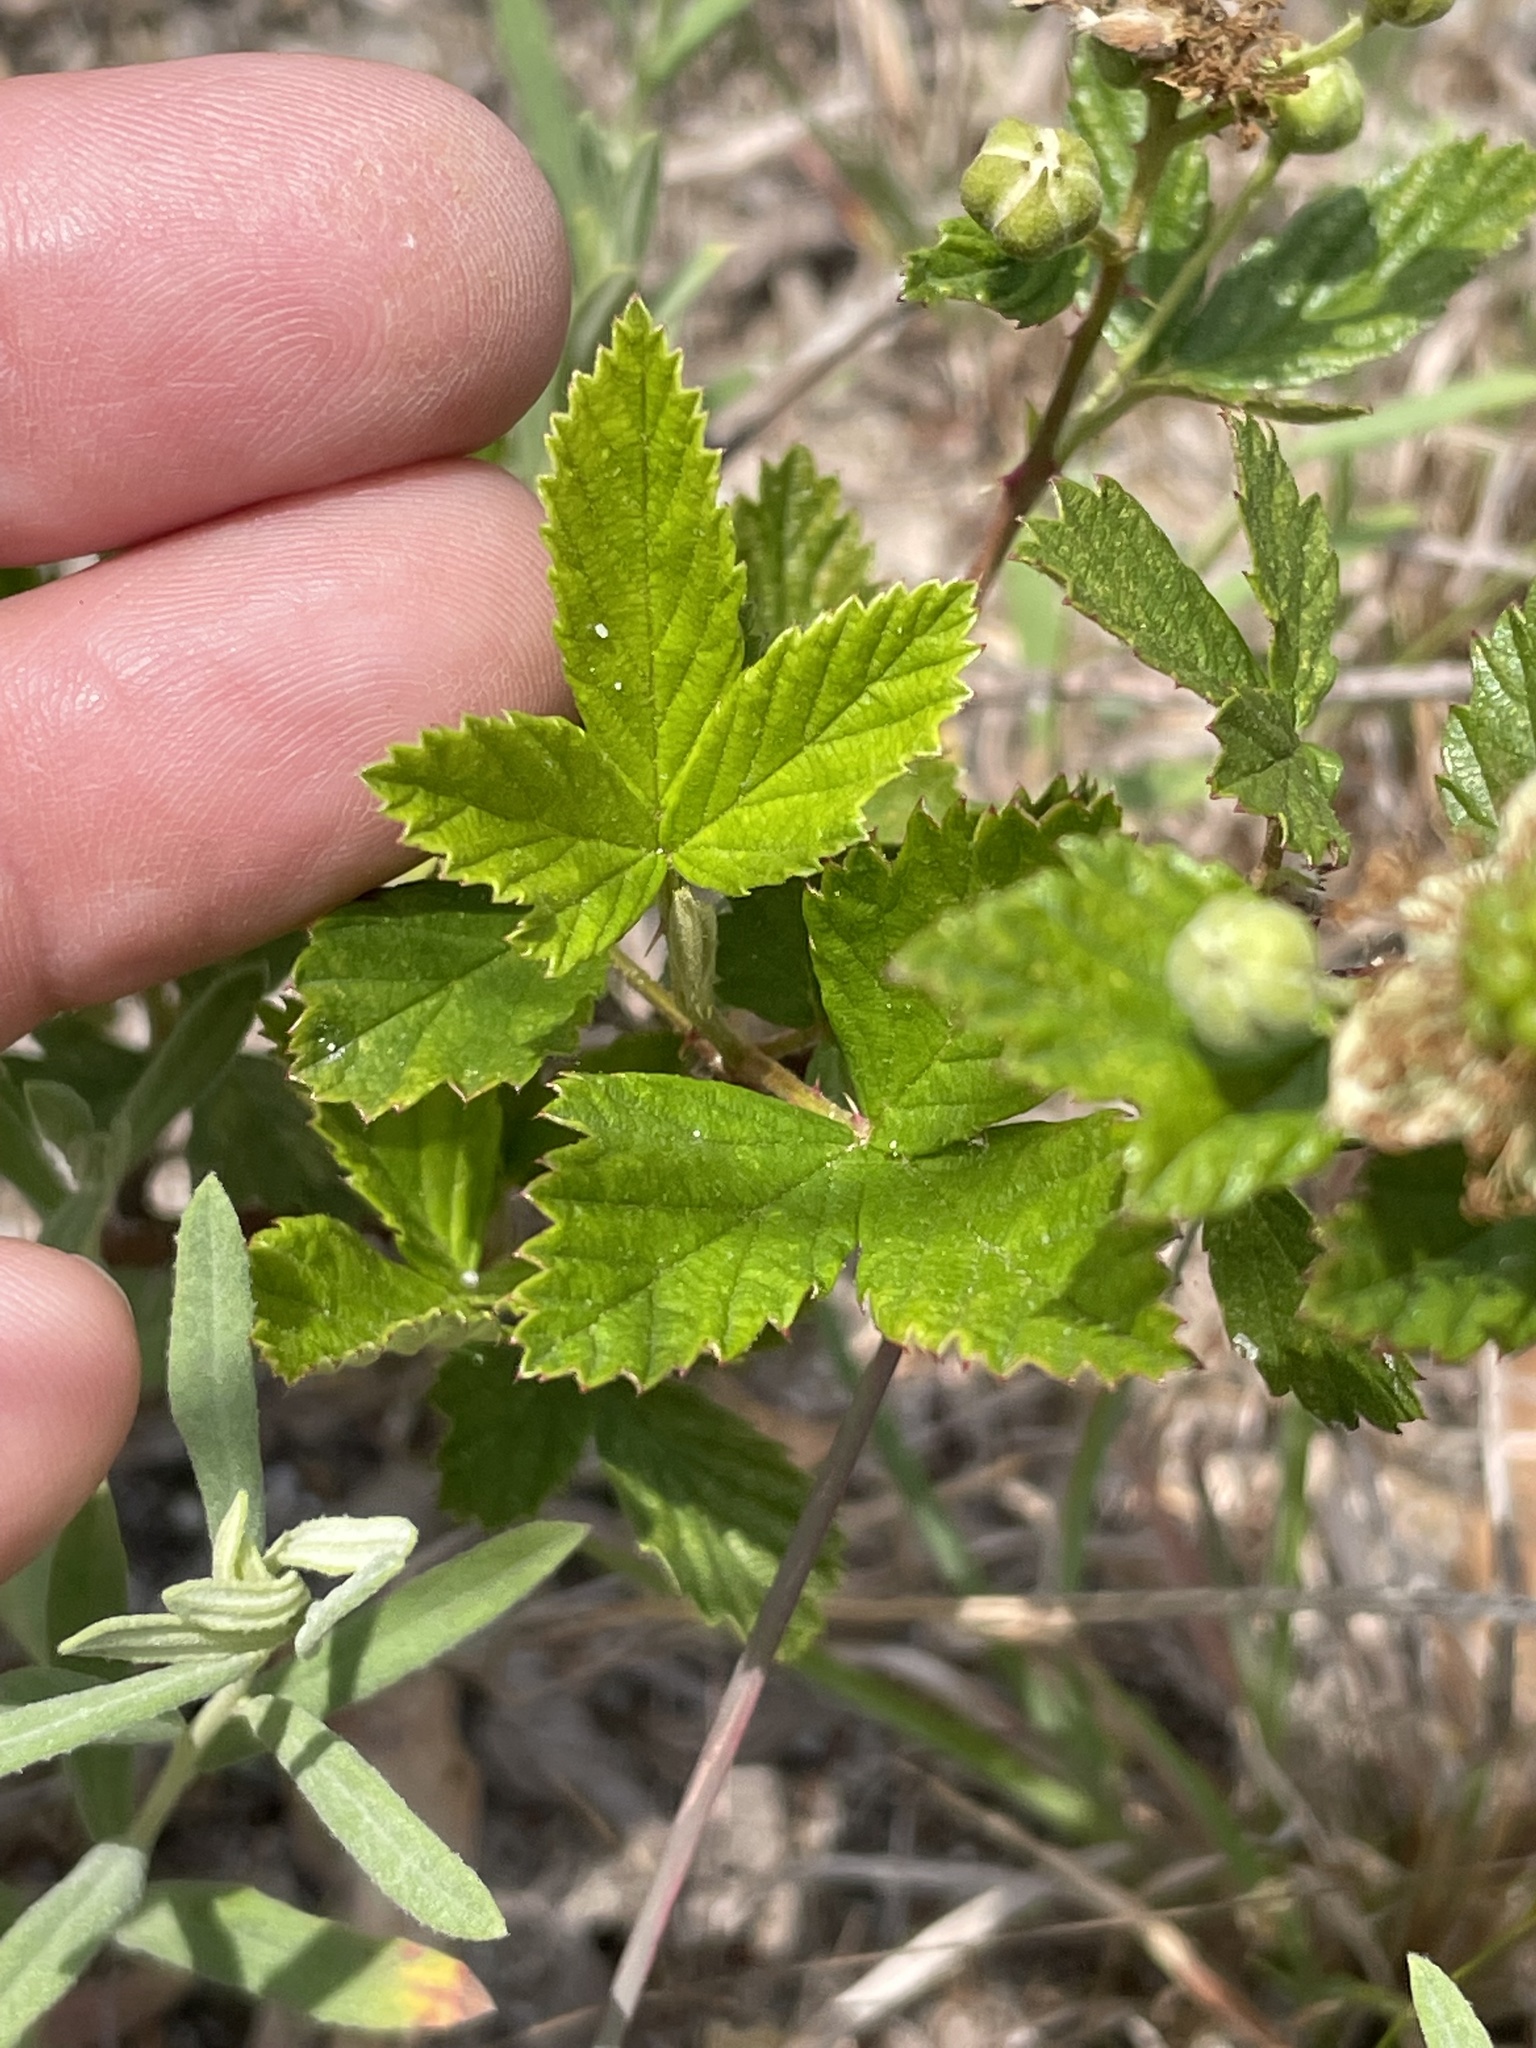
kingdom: Plantae
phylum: Tracheophyta
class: Magnoliopsida
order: Rosales
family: Rosaceae
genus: Rubus
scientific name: Rubus cuneifolius
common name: American bramble
